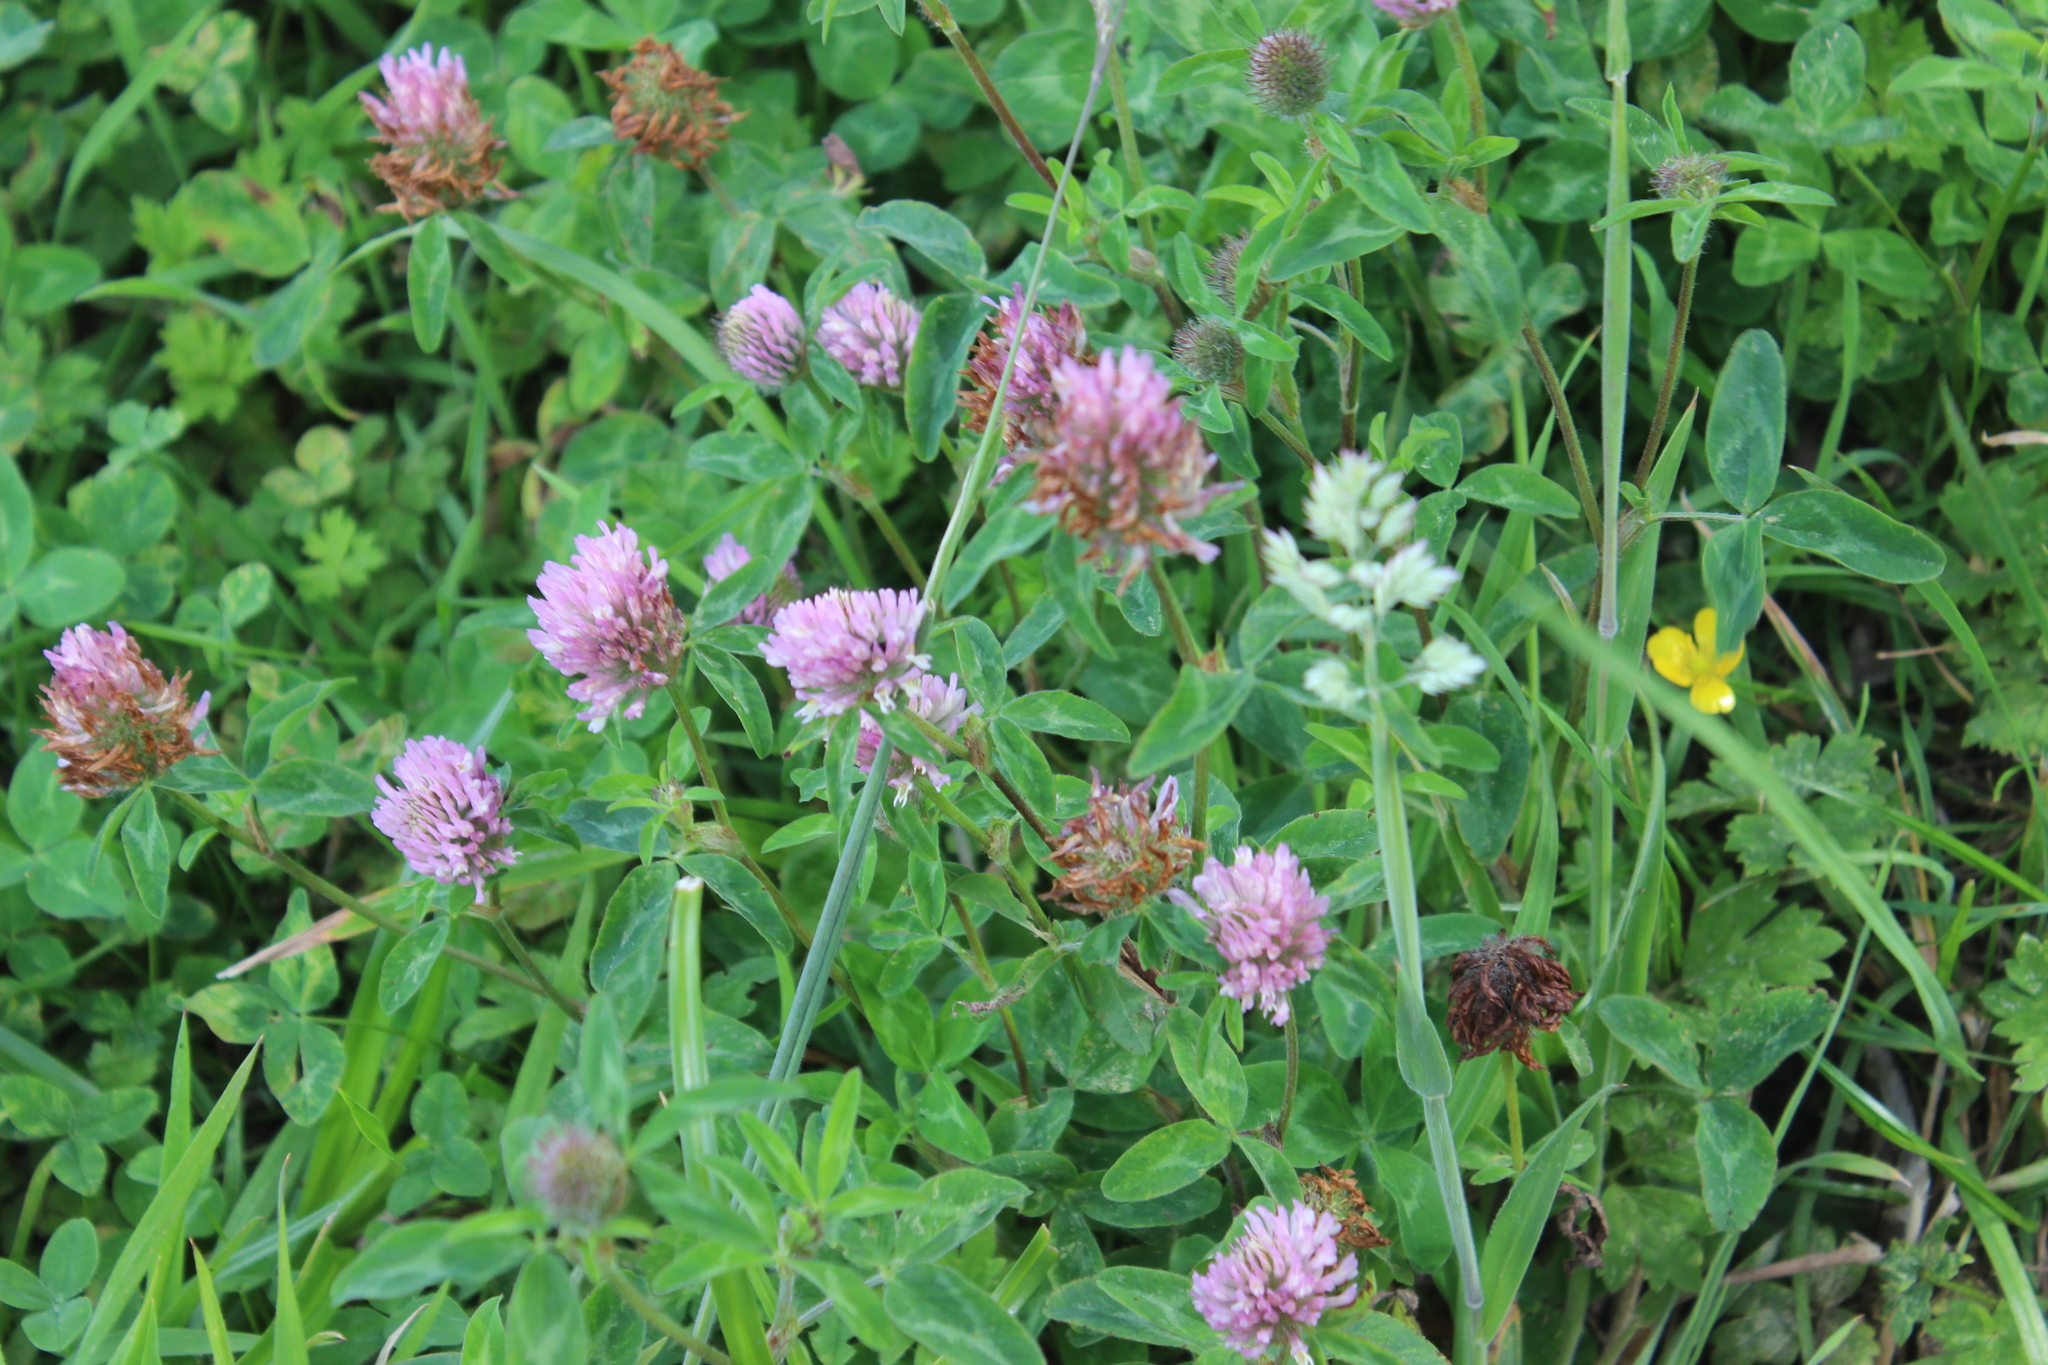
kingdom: Plantae
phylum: Tracheophyta
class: Magnoliopsida
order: Fabales
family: Fabaceae
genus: Trifolium
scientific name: Trifolium pratense
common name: Red clover
